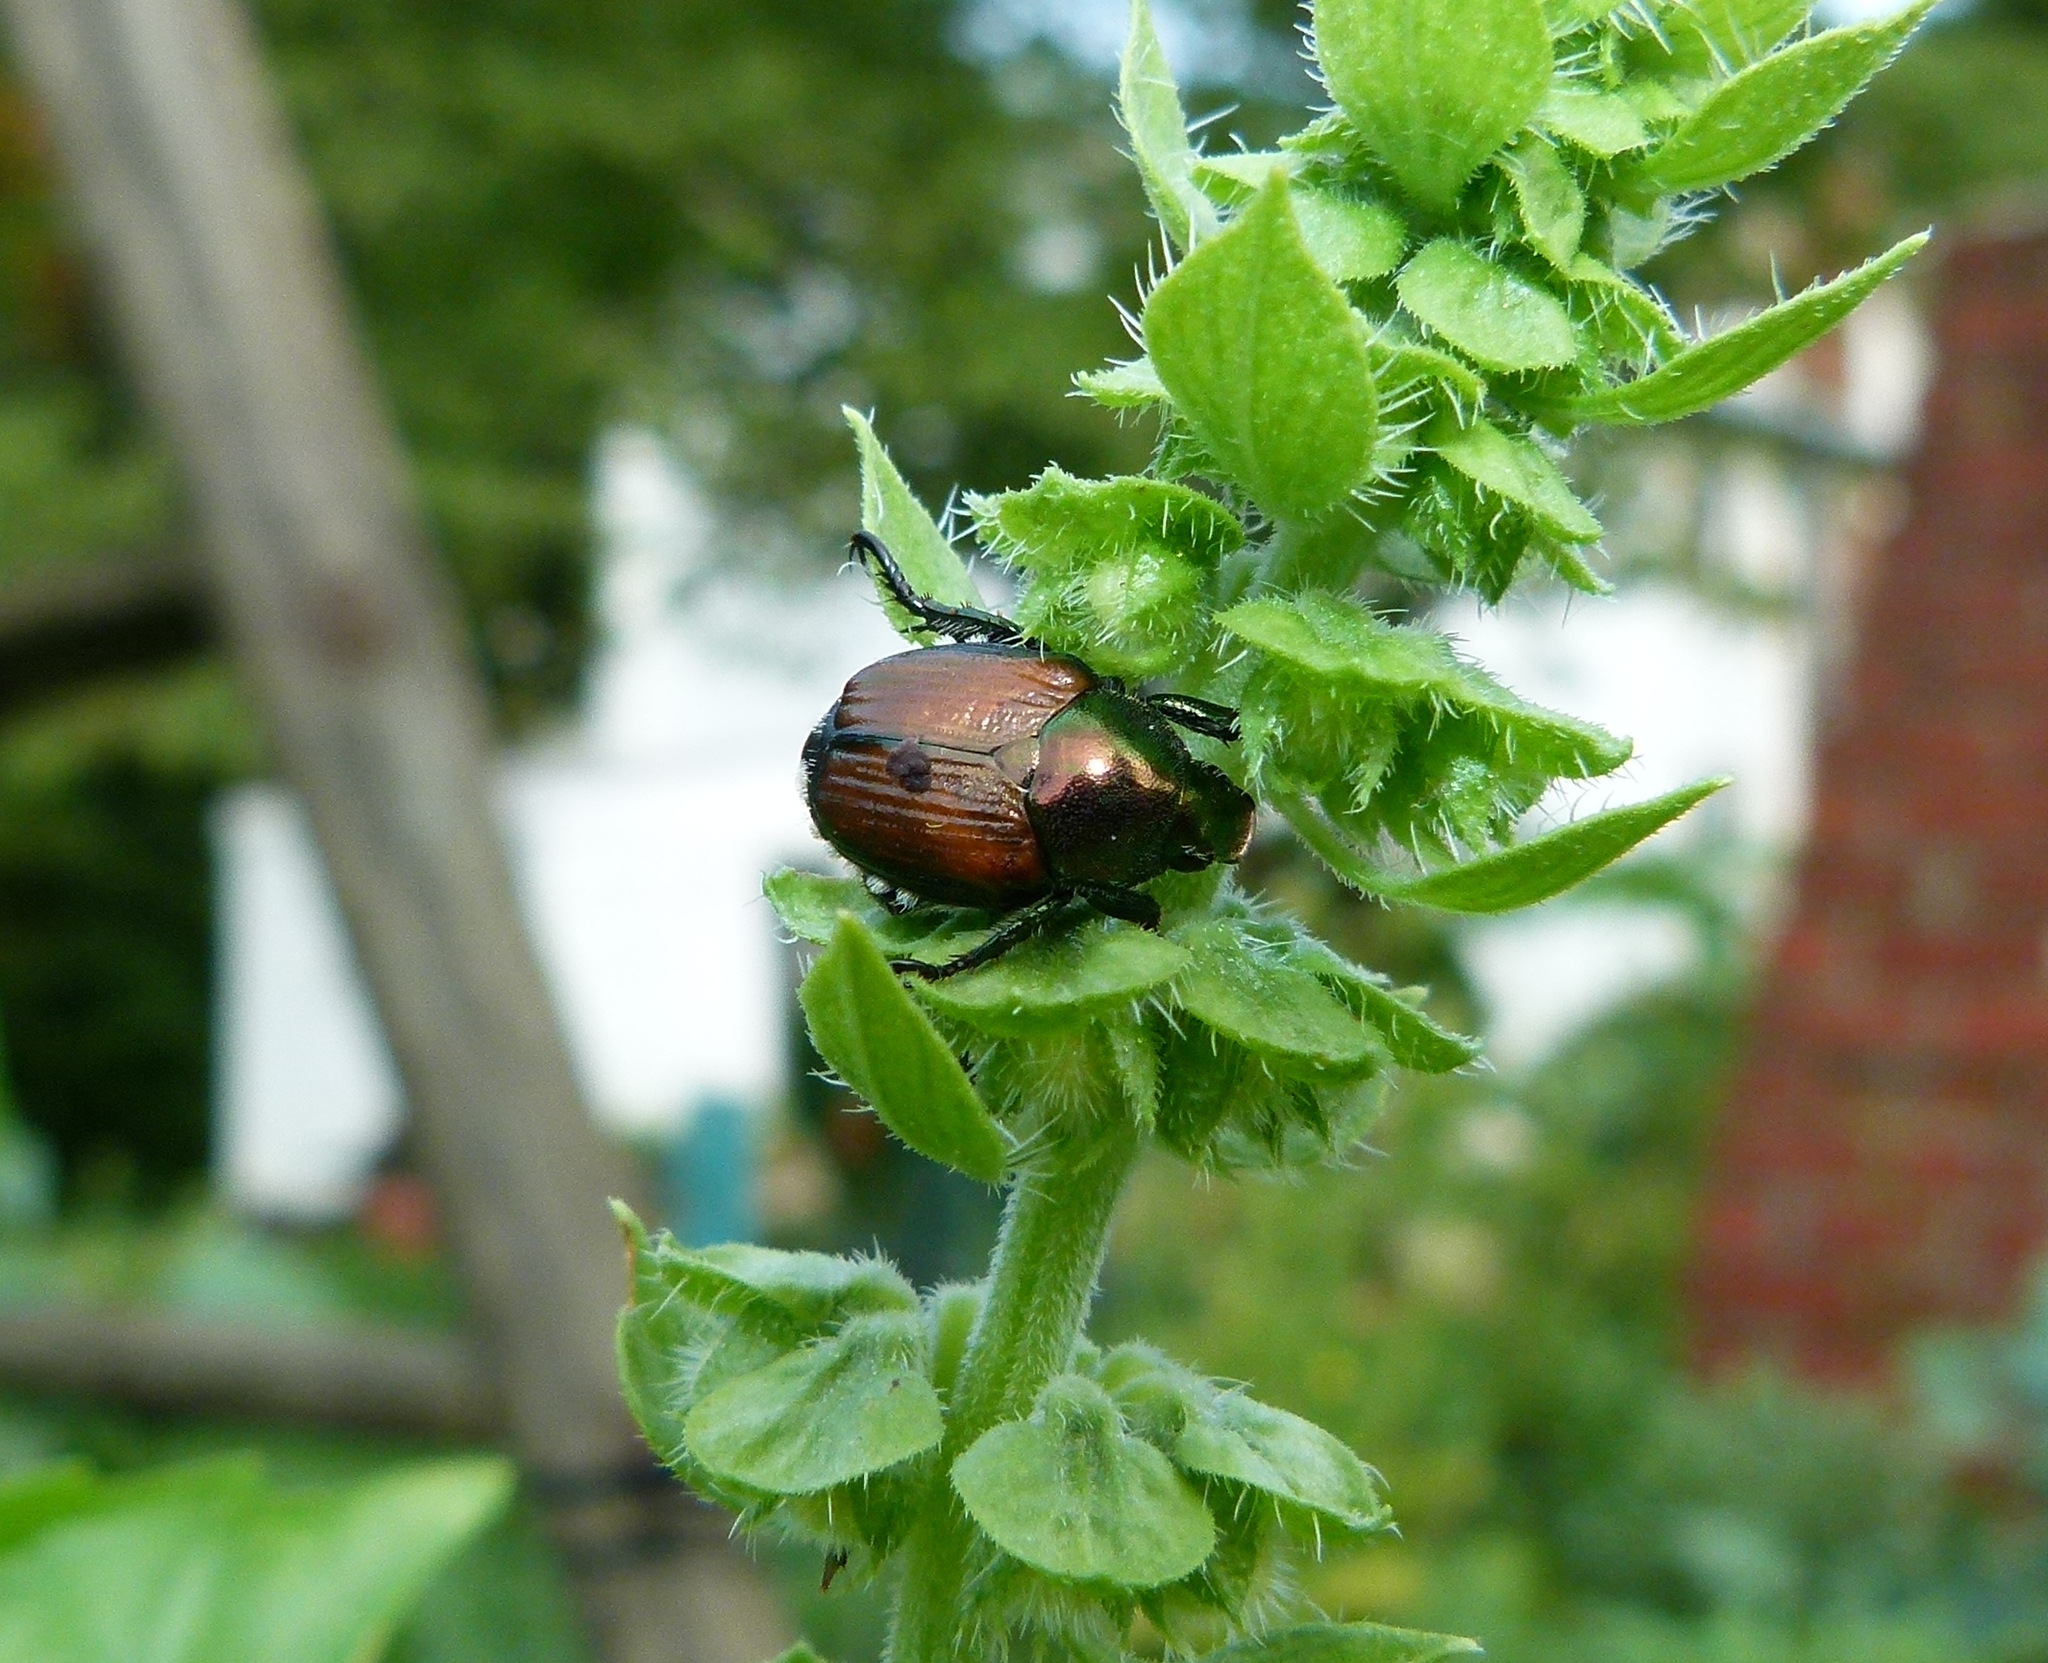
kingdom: Animalia
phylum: Arthropoda
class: Insecta
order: Coleoptera
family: Scarabaeidae
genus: Popillia
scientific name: Popillia japonica
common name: Japanese beetle
